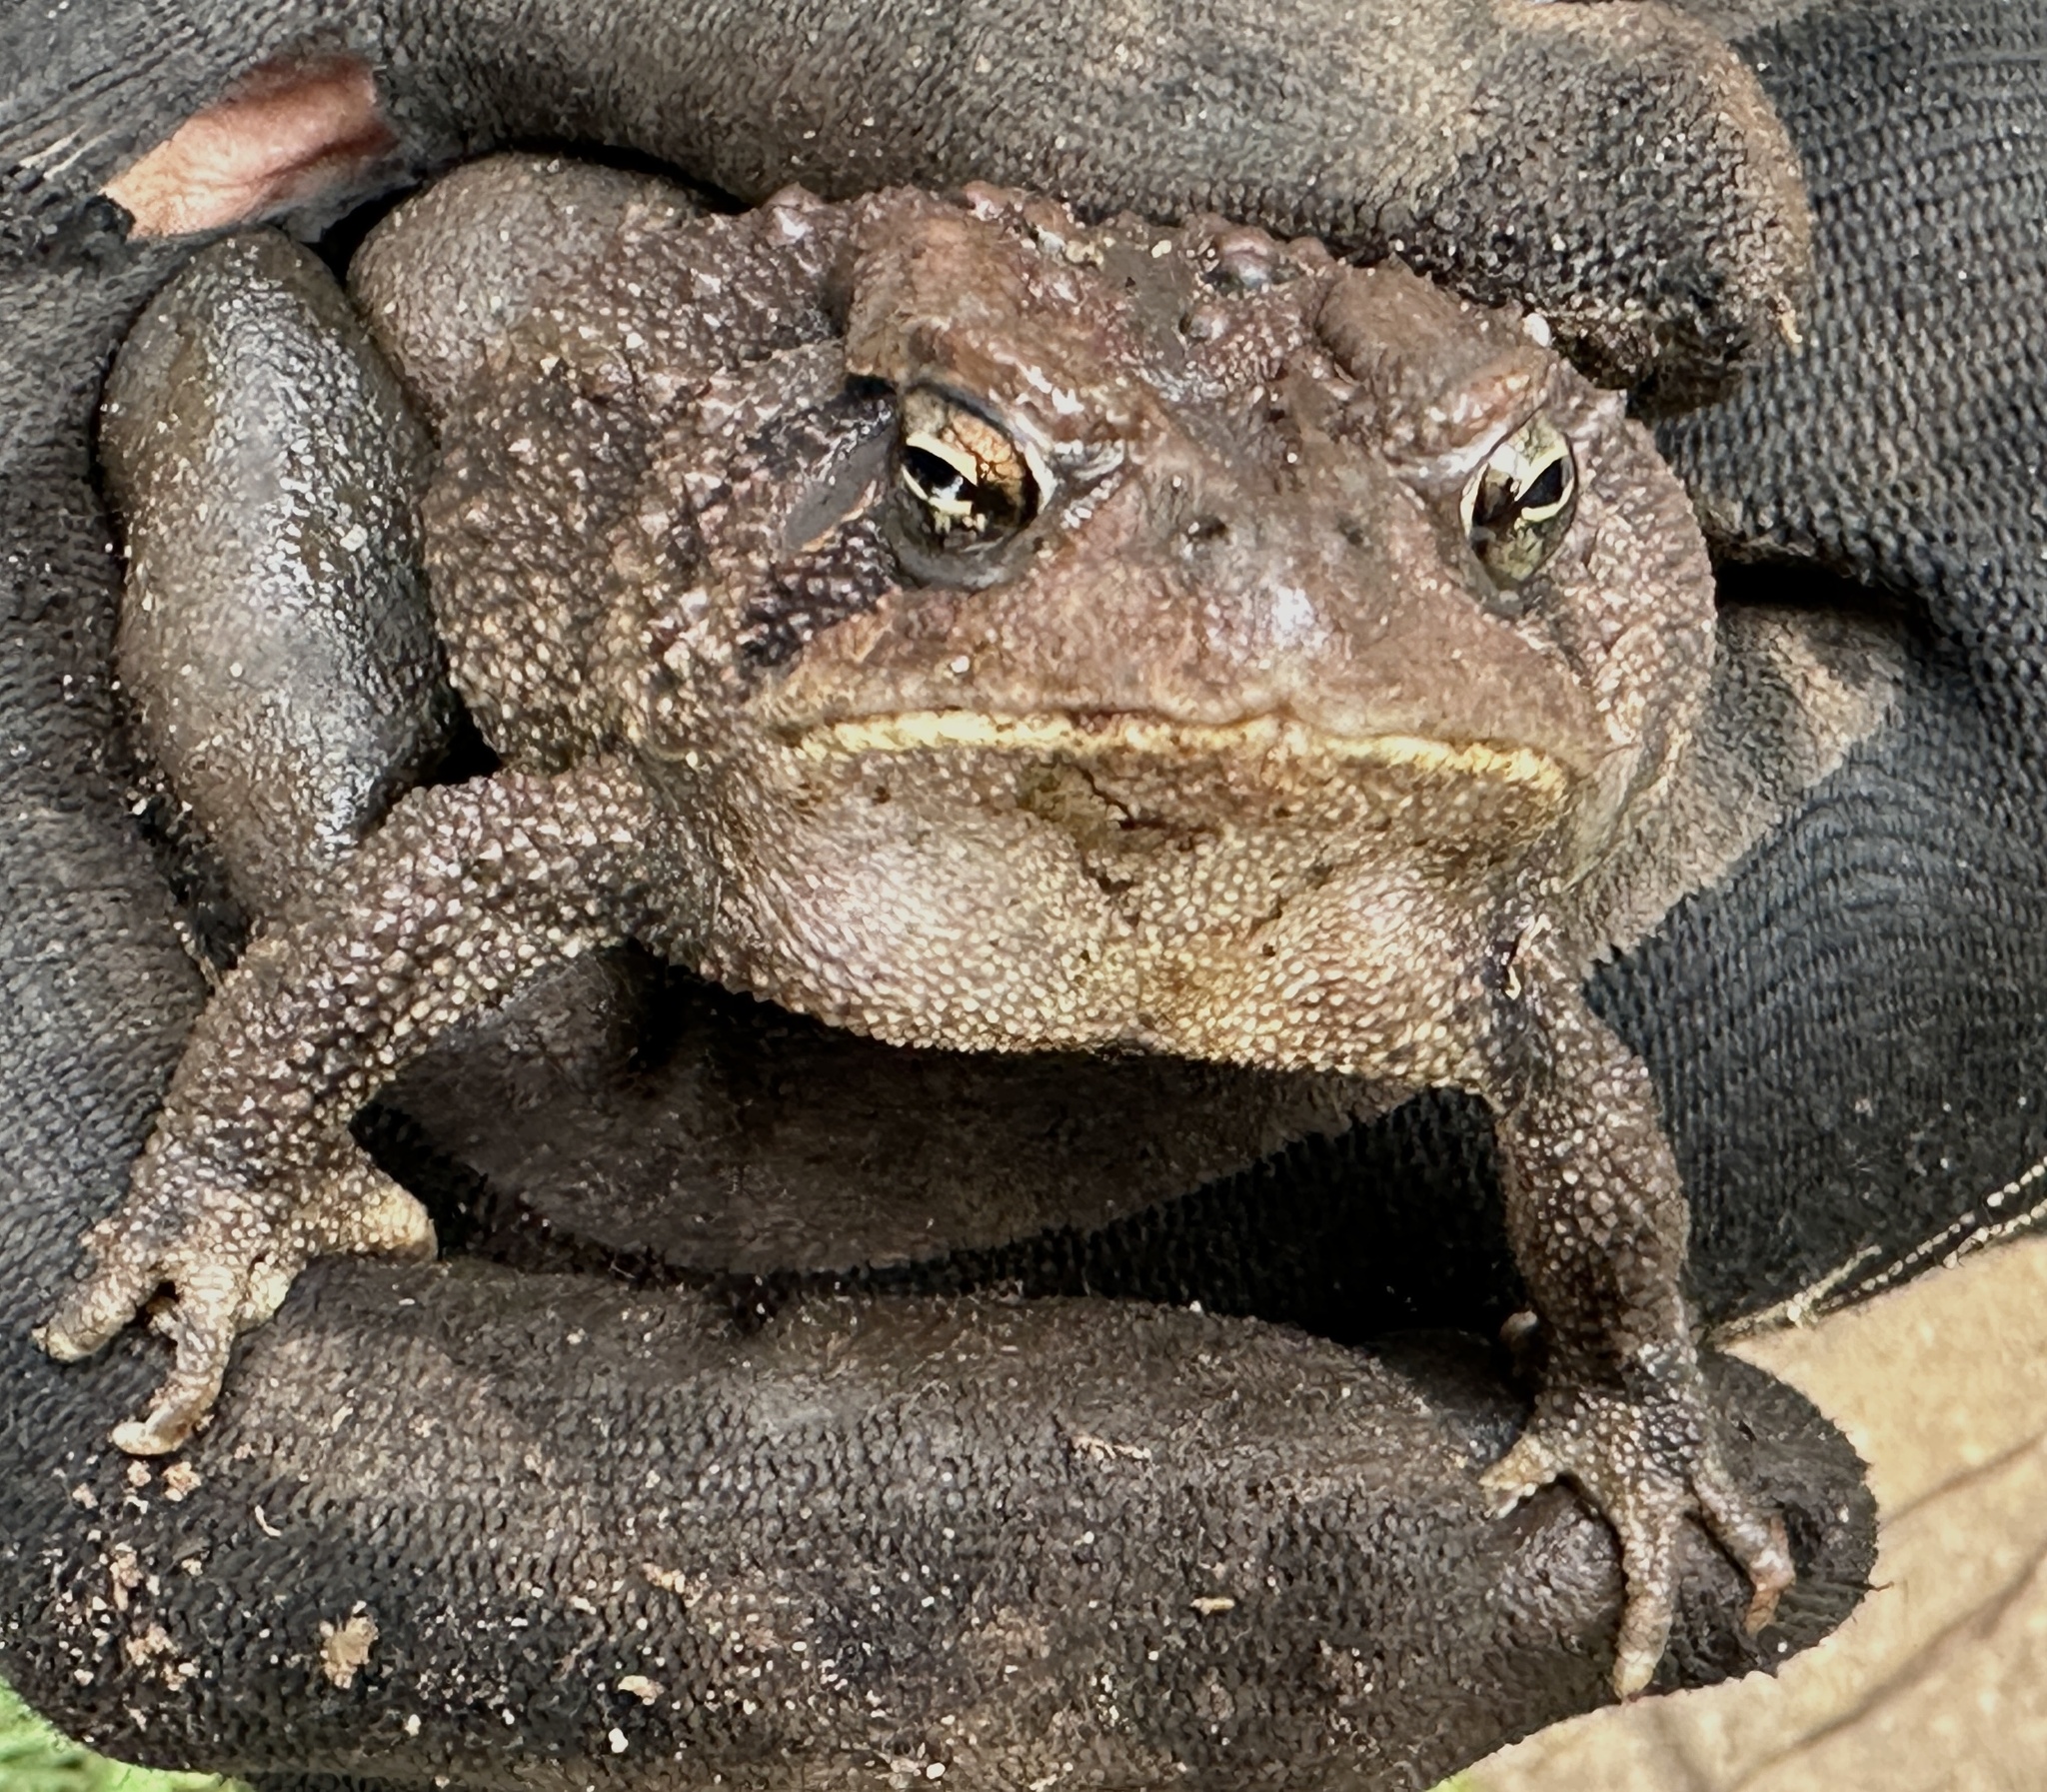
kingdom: Animalia
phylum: Chordata
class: Amphibia
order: Anura
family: Bufonidae
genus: Anaxyrus
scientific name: Anaxyrus americanus
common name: American toad
